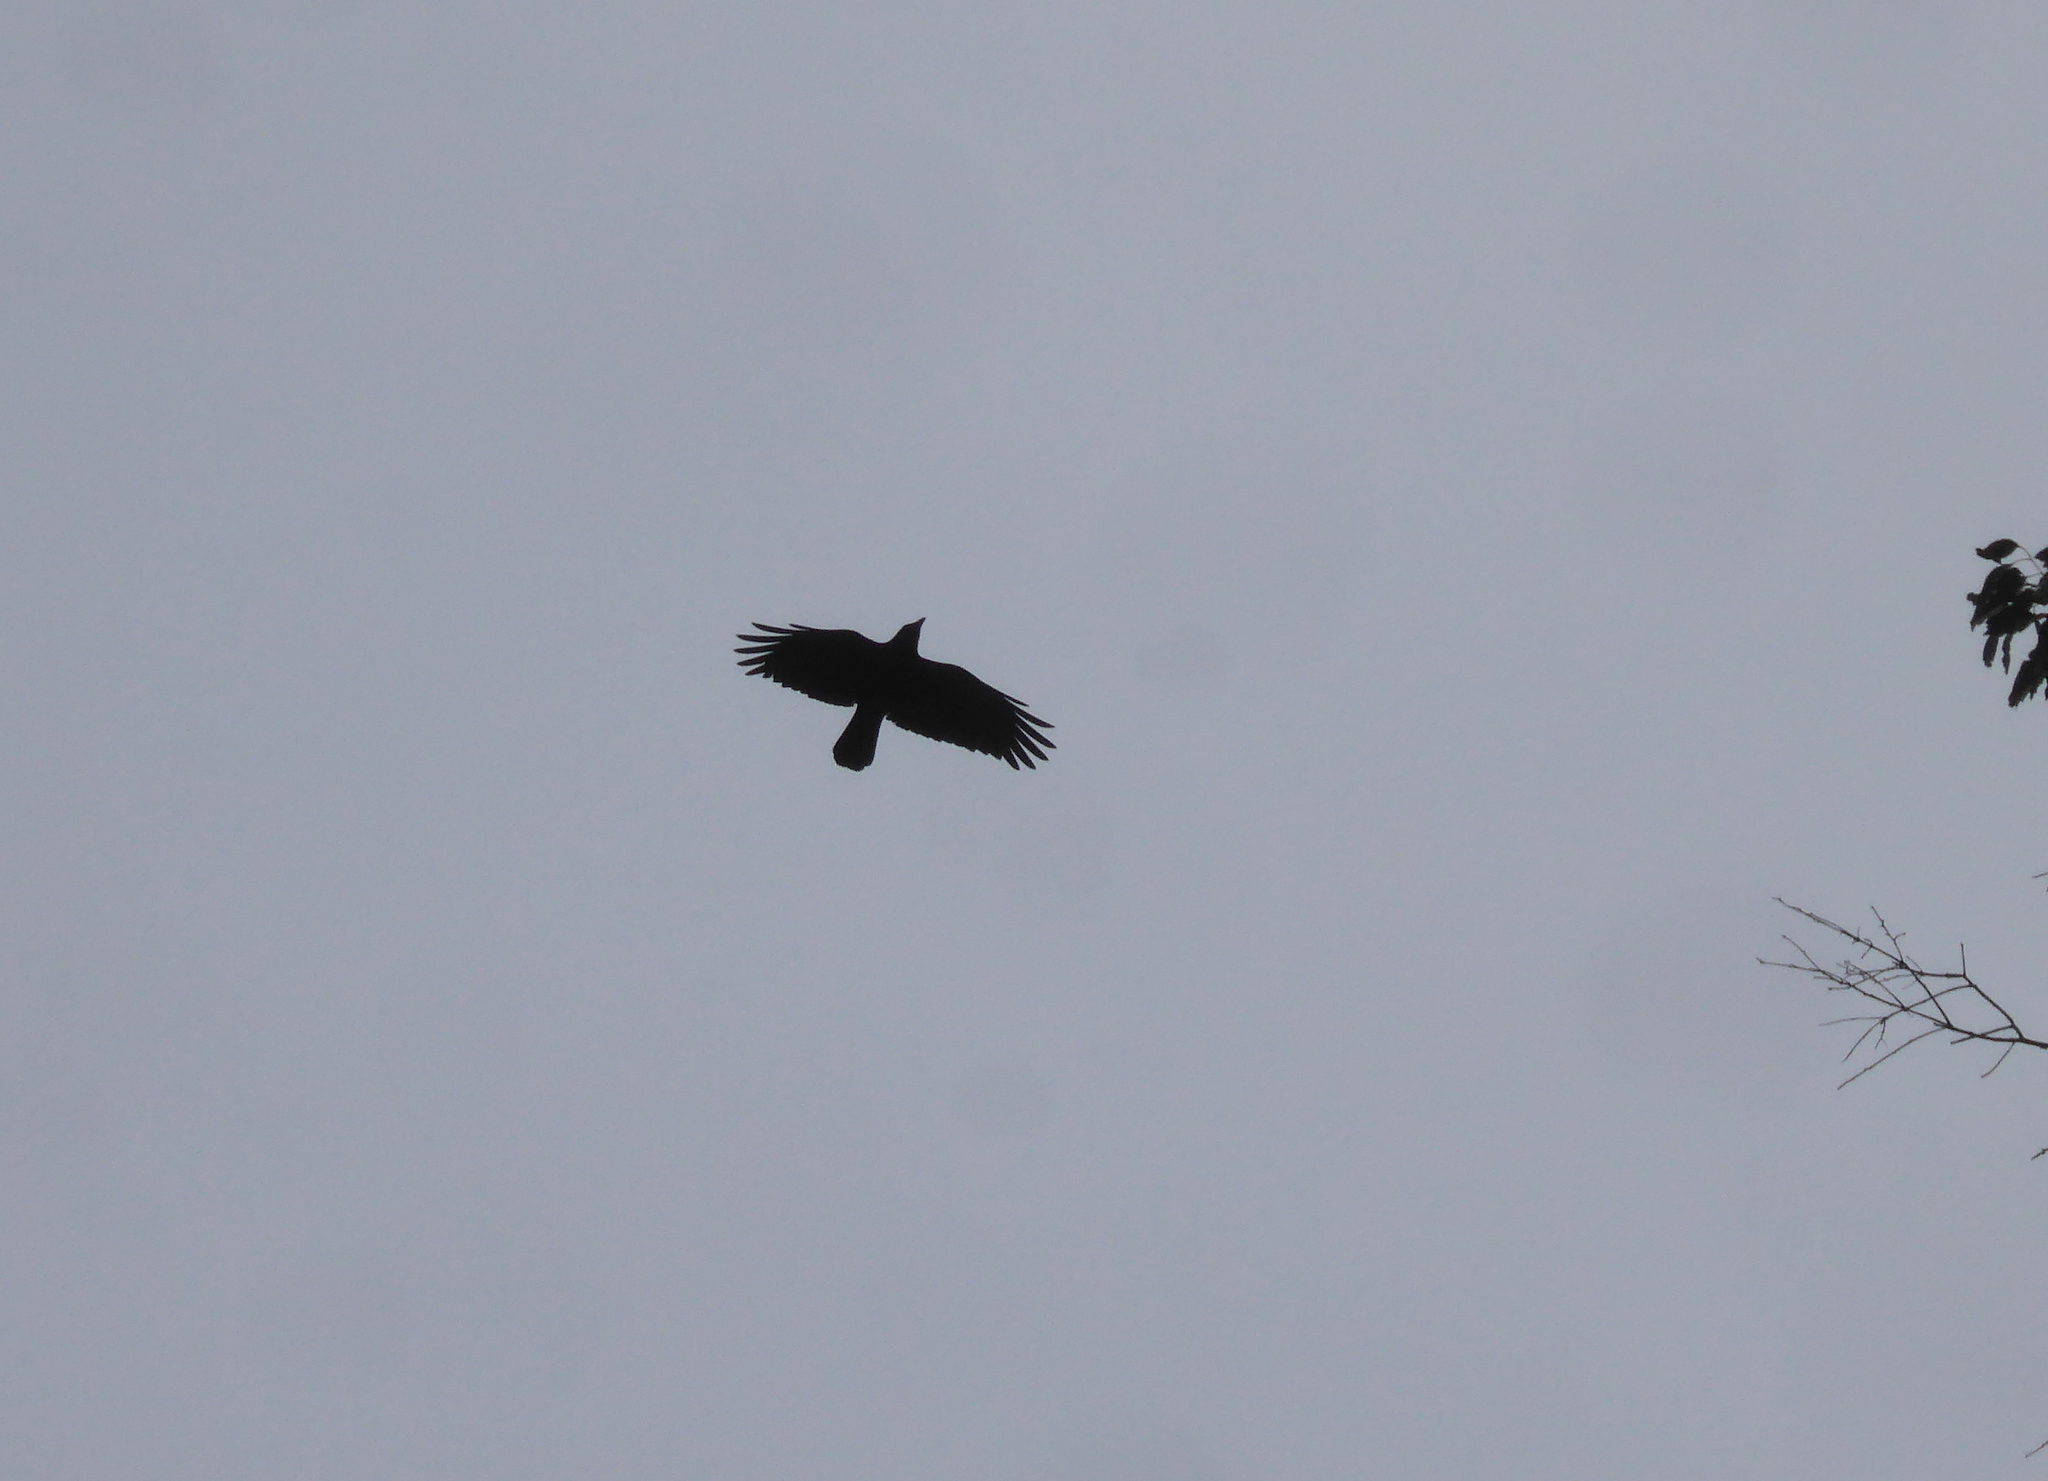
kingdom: Animalia
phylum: Chordata
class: Aves
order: Passeriformes
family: Corvidae
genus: Corvus
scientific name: Corvus brachyrhynchos
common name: American crow
